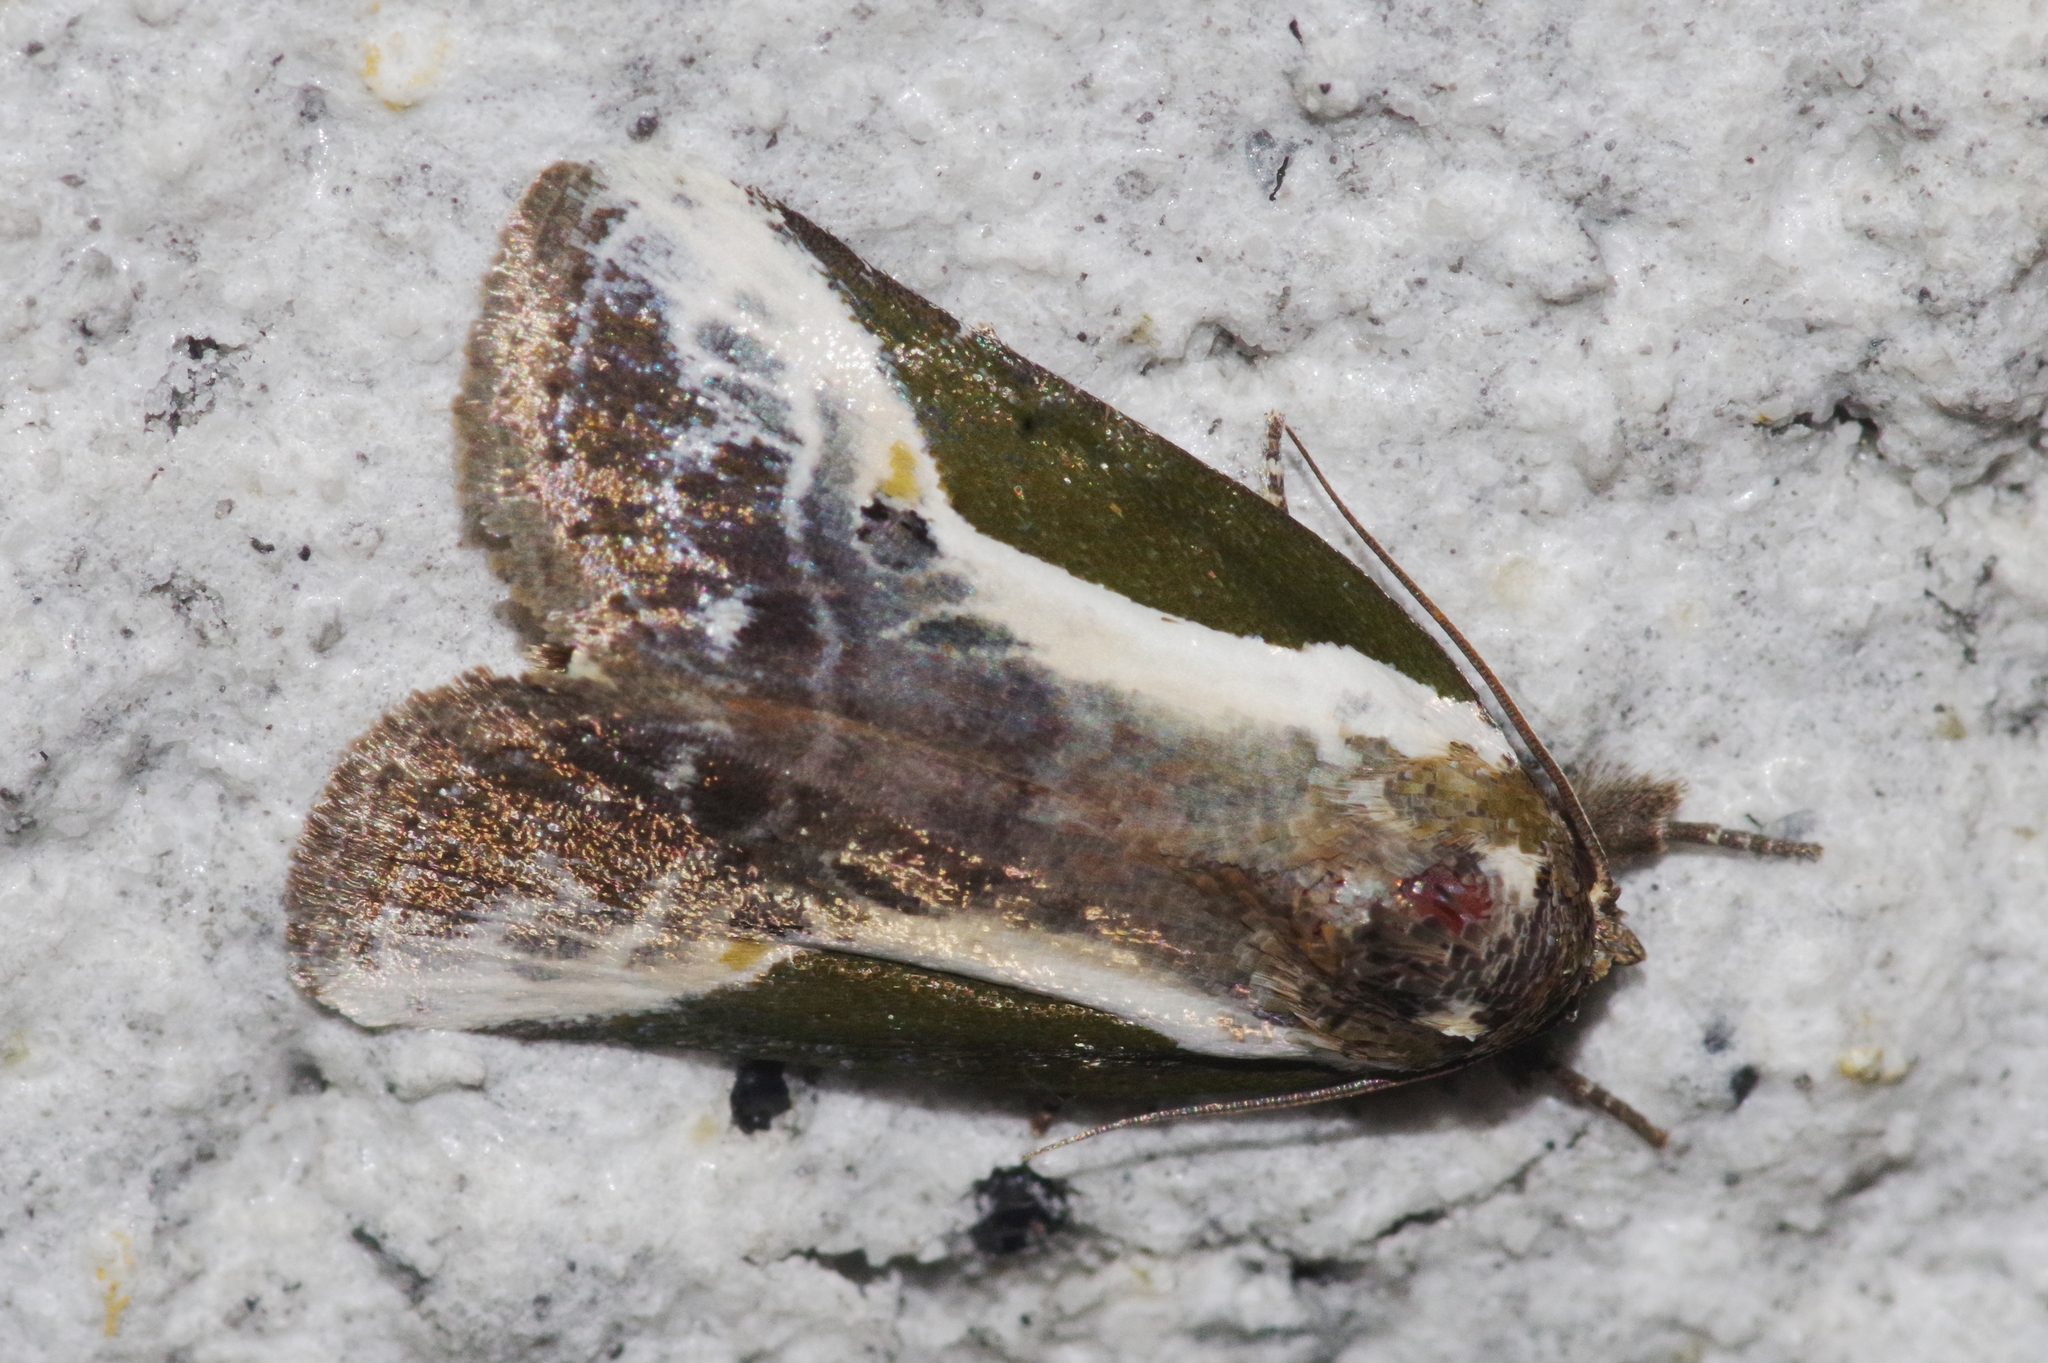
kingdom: Animalia
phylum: Arthropoda
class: Insecta
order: Lepidoptera
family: Noctuidae
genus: Stenoloba
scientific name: Stenoloba jankowskii
